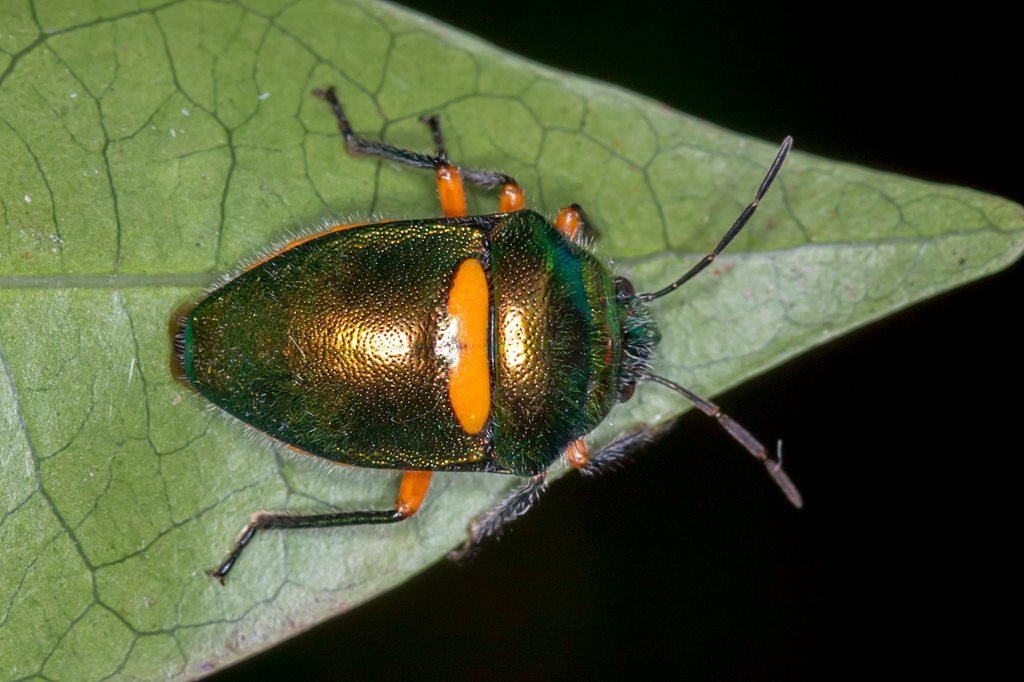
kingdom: Animalia
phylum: Arthropoda
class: Insecta
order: Hemiptera
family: Scutelleridae
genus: Lampromicra
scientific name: Lampromicra senator
